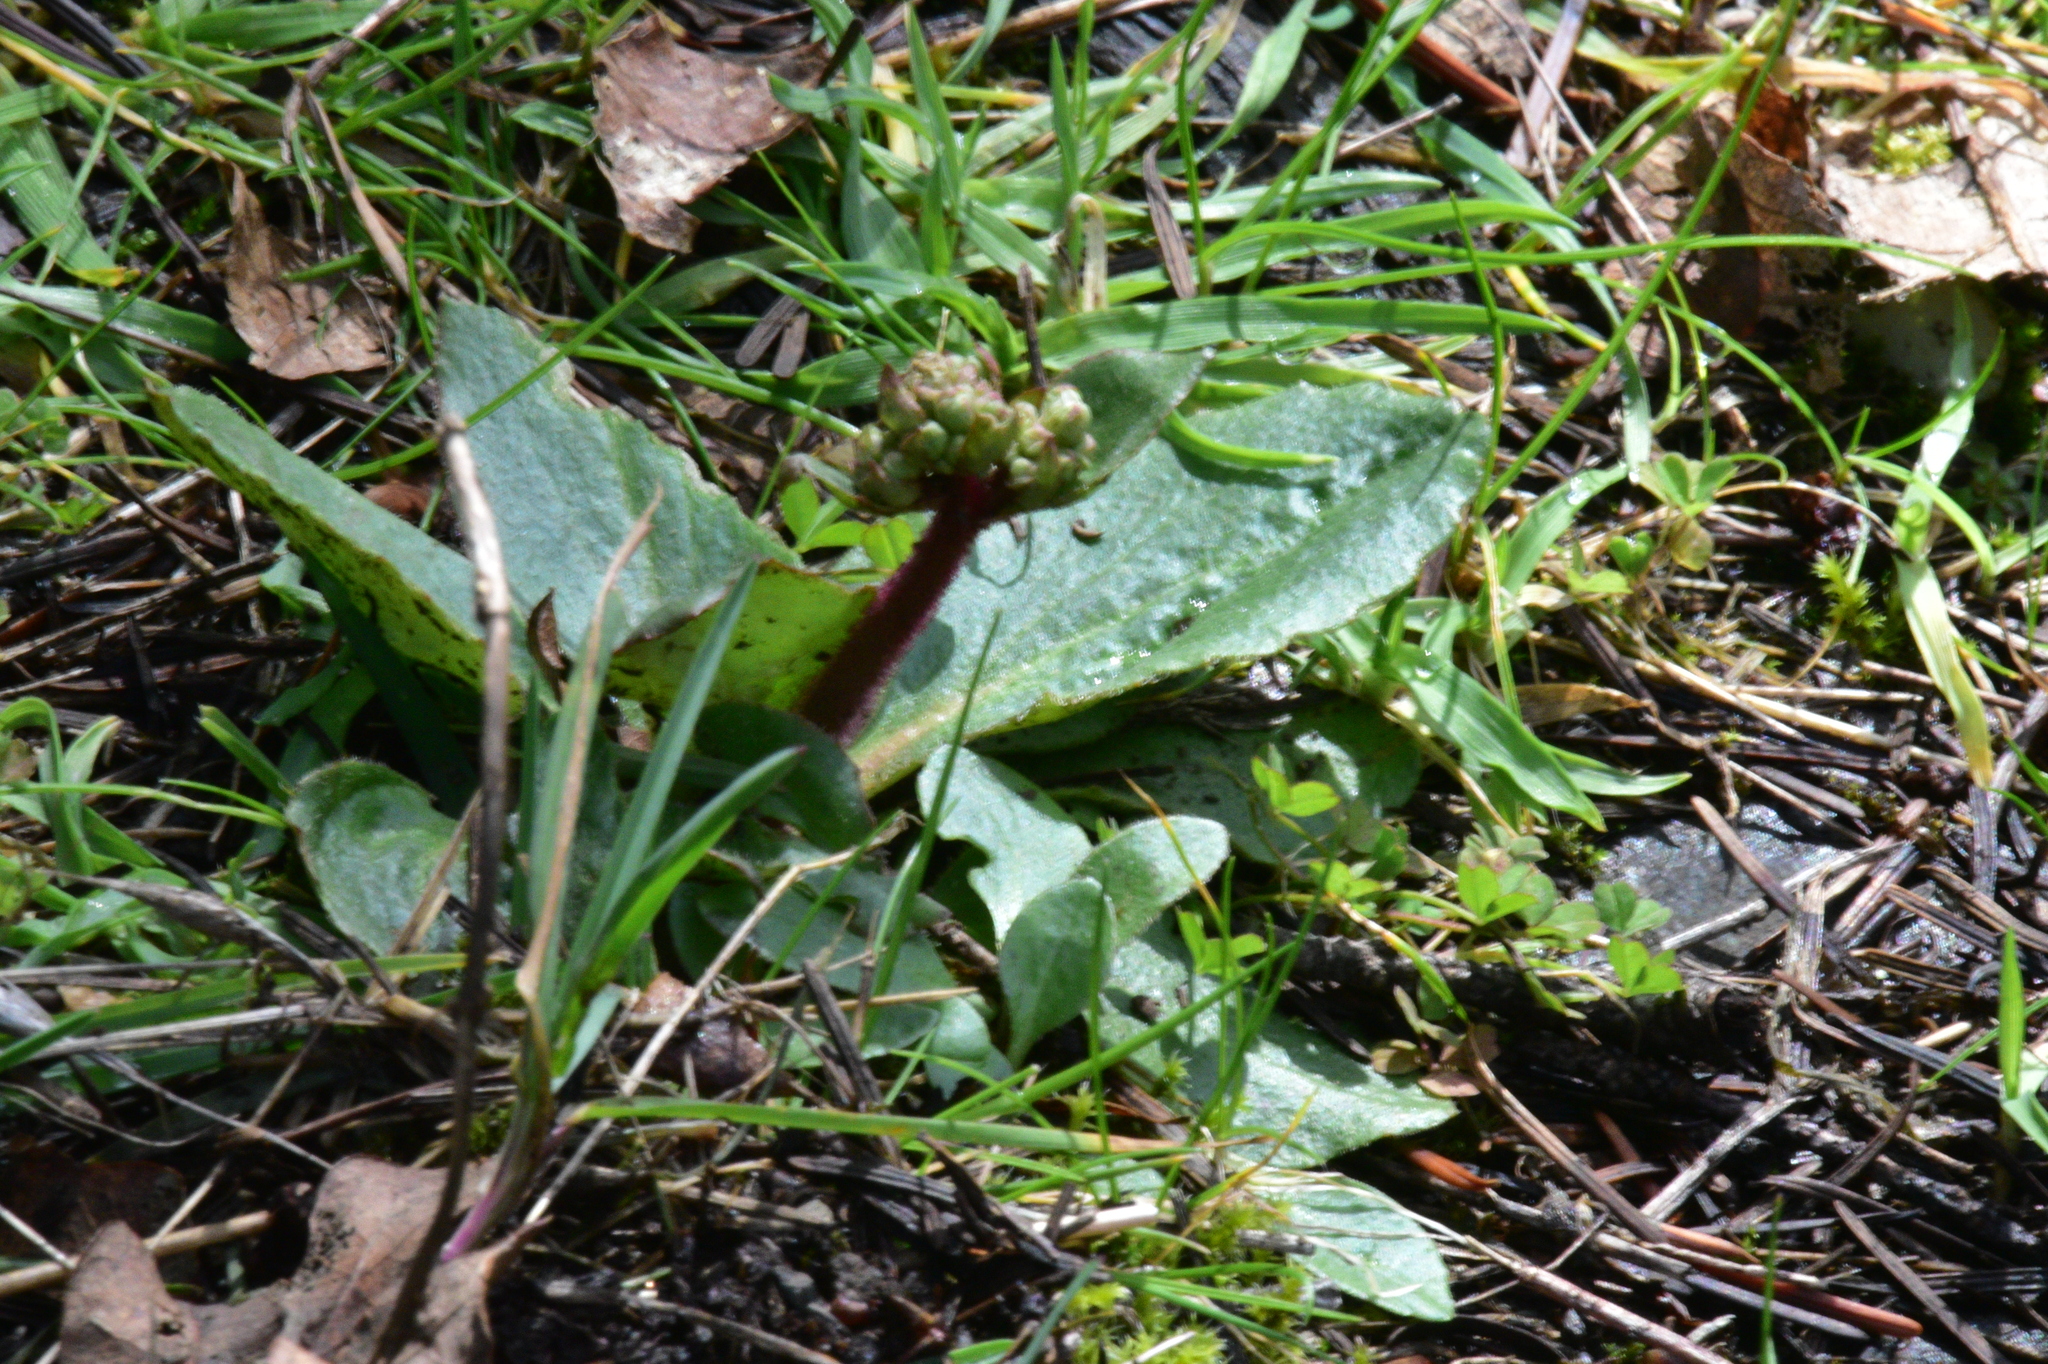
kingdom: Plantae
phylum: Tracheophyta
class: Magnoliopsida
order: Saxifragales
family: Saxifragaceae
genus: Micranthes
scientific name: Micranthes integrifolia
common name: Wholeleaf saxifrage
